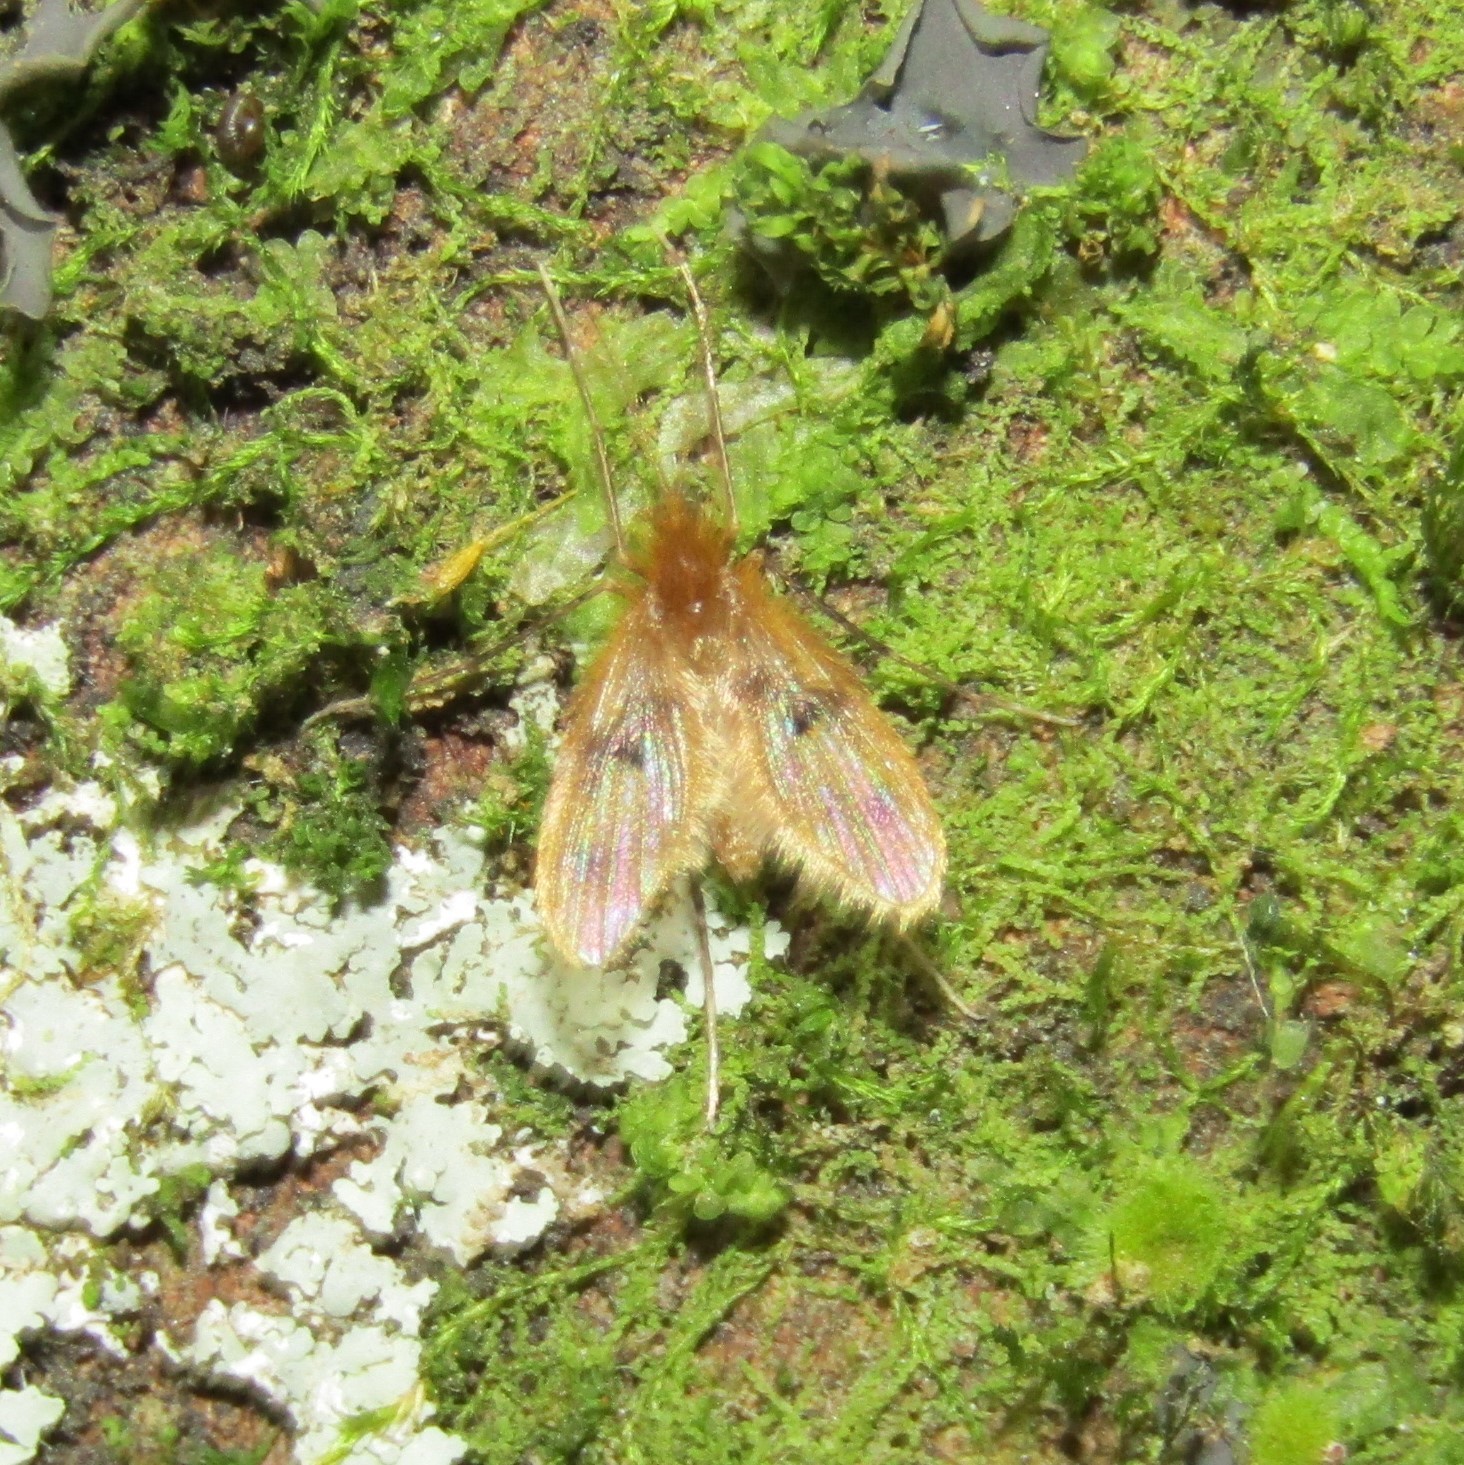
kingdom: Animalia
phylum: Arthropoda
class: Insecta
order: Diptera
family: Psychodidae
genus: Notofairchildia
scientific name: Notofairchildia zelandiae
